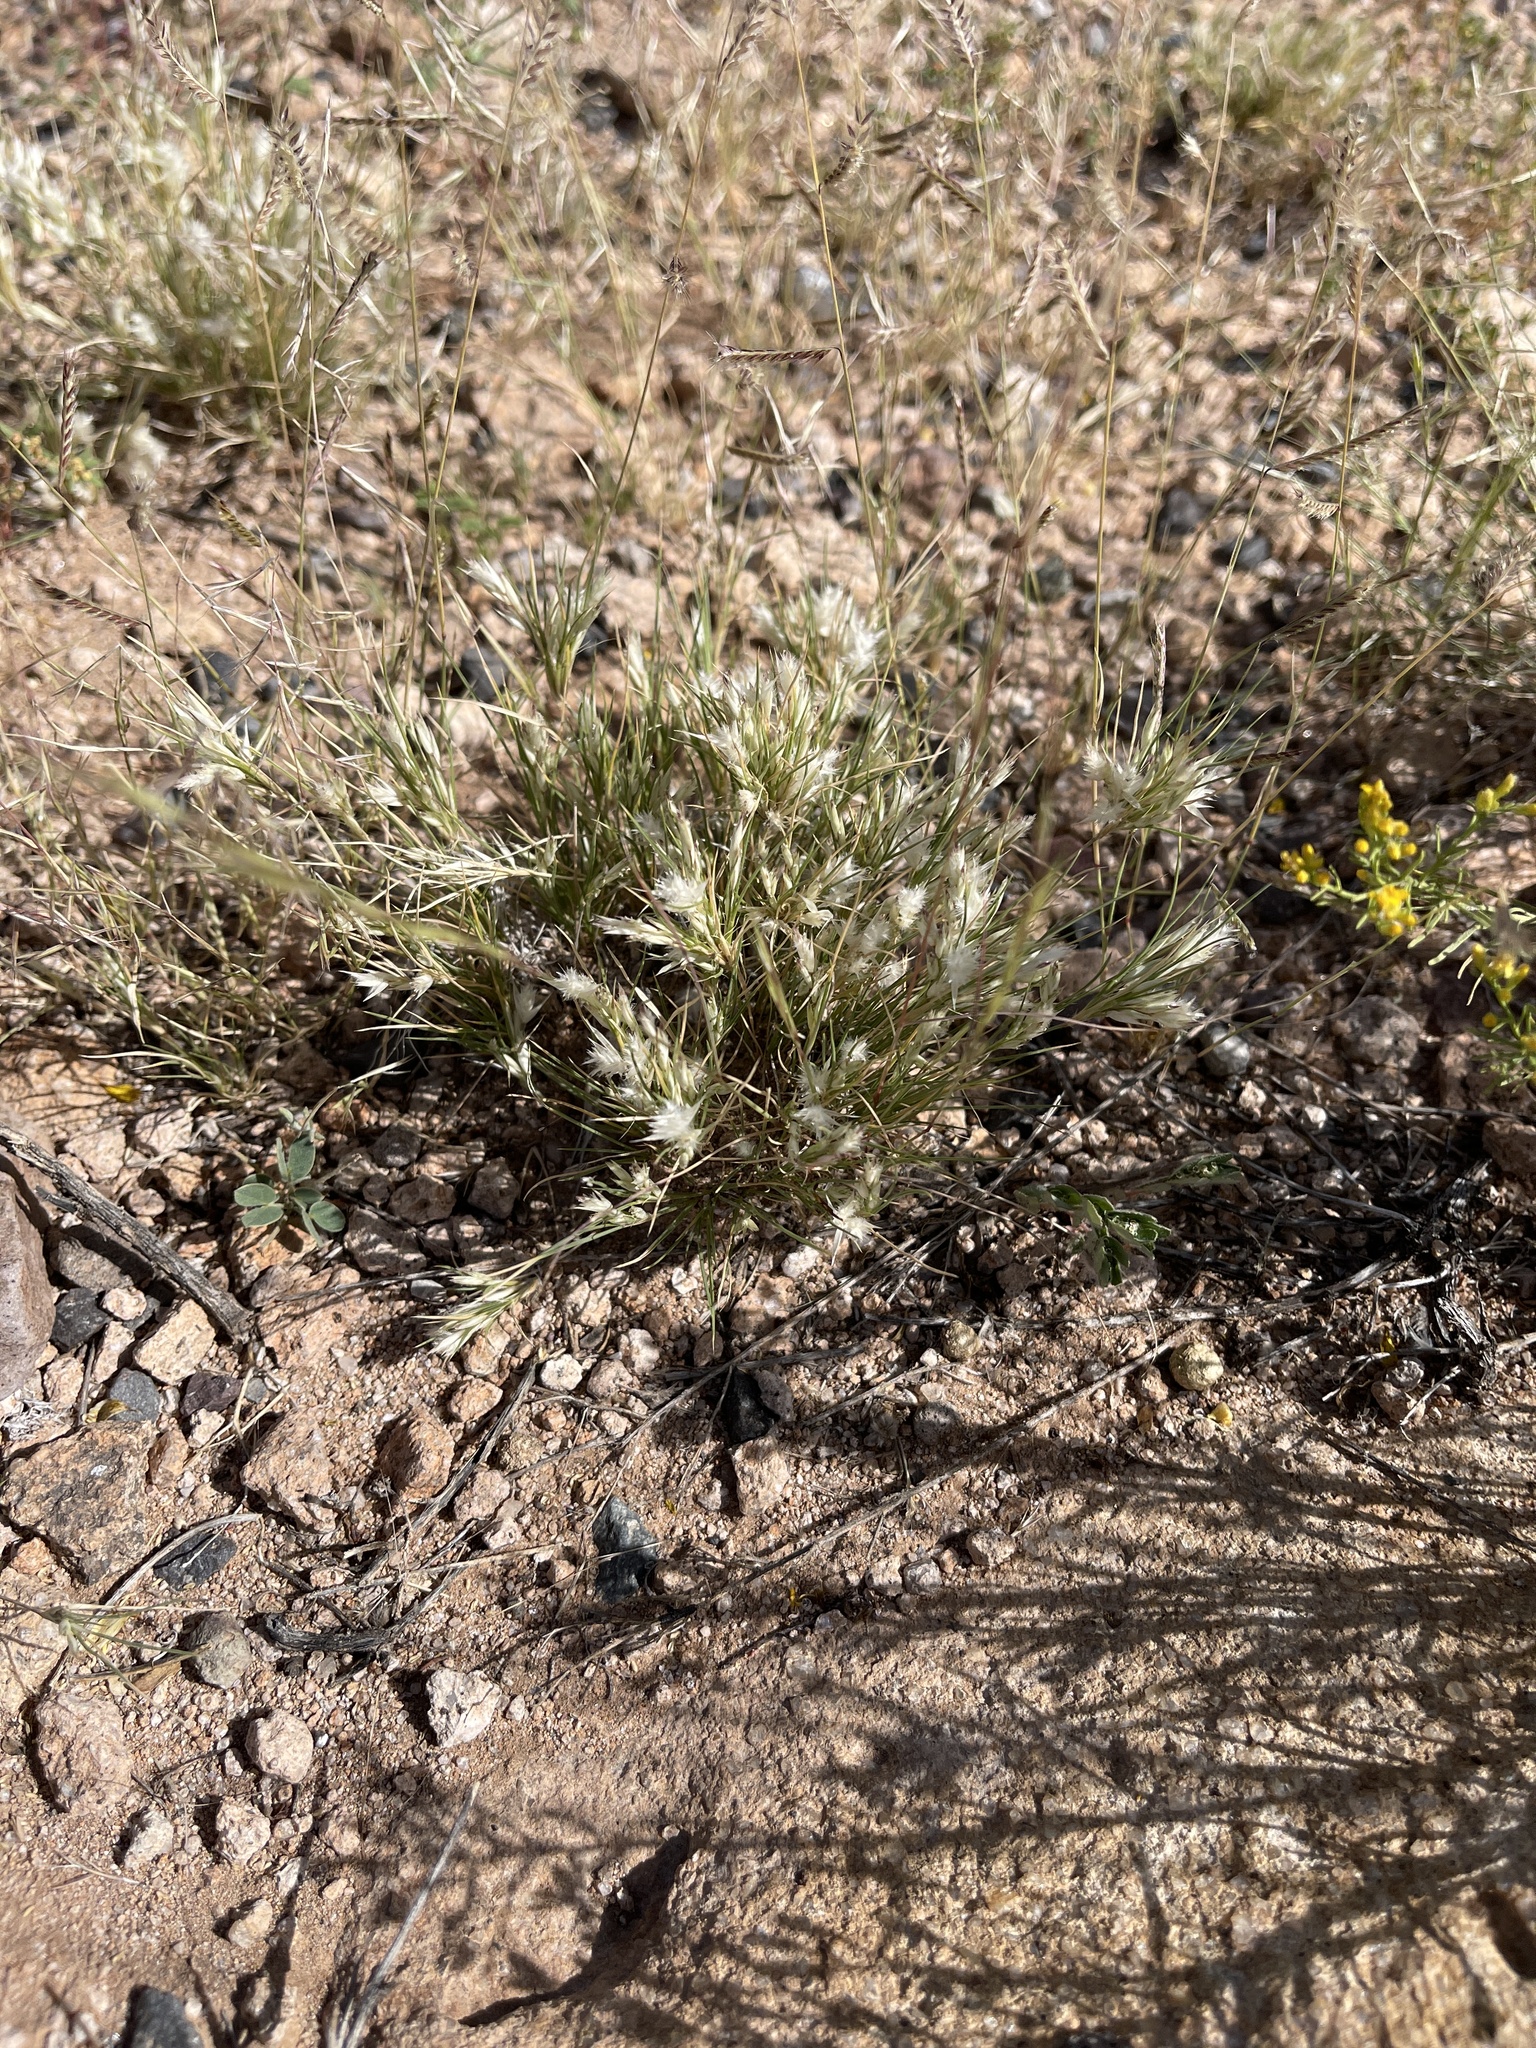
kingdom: Plantae
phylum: Tracheophyta
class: Liliopsida
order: Poales
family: Poaceae
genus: Dasyochloa
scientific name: Dasyochloa pulchella
